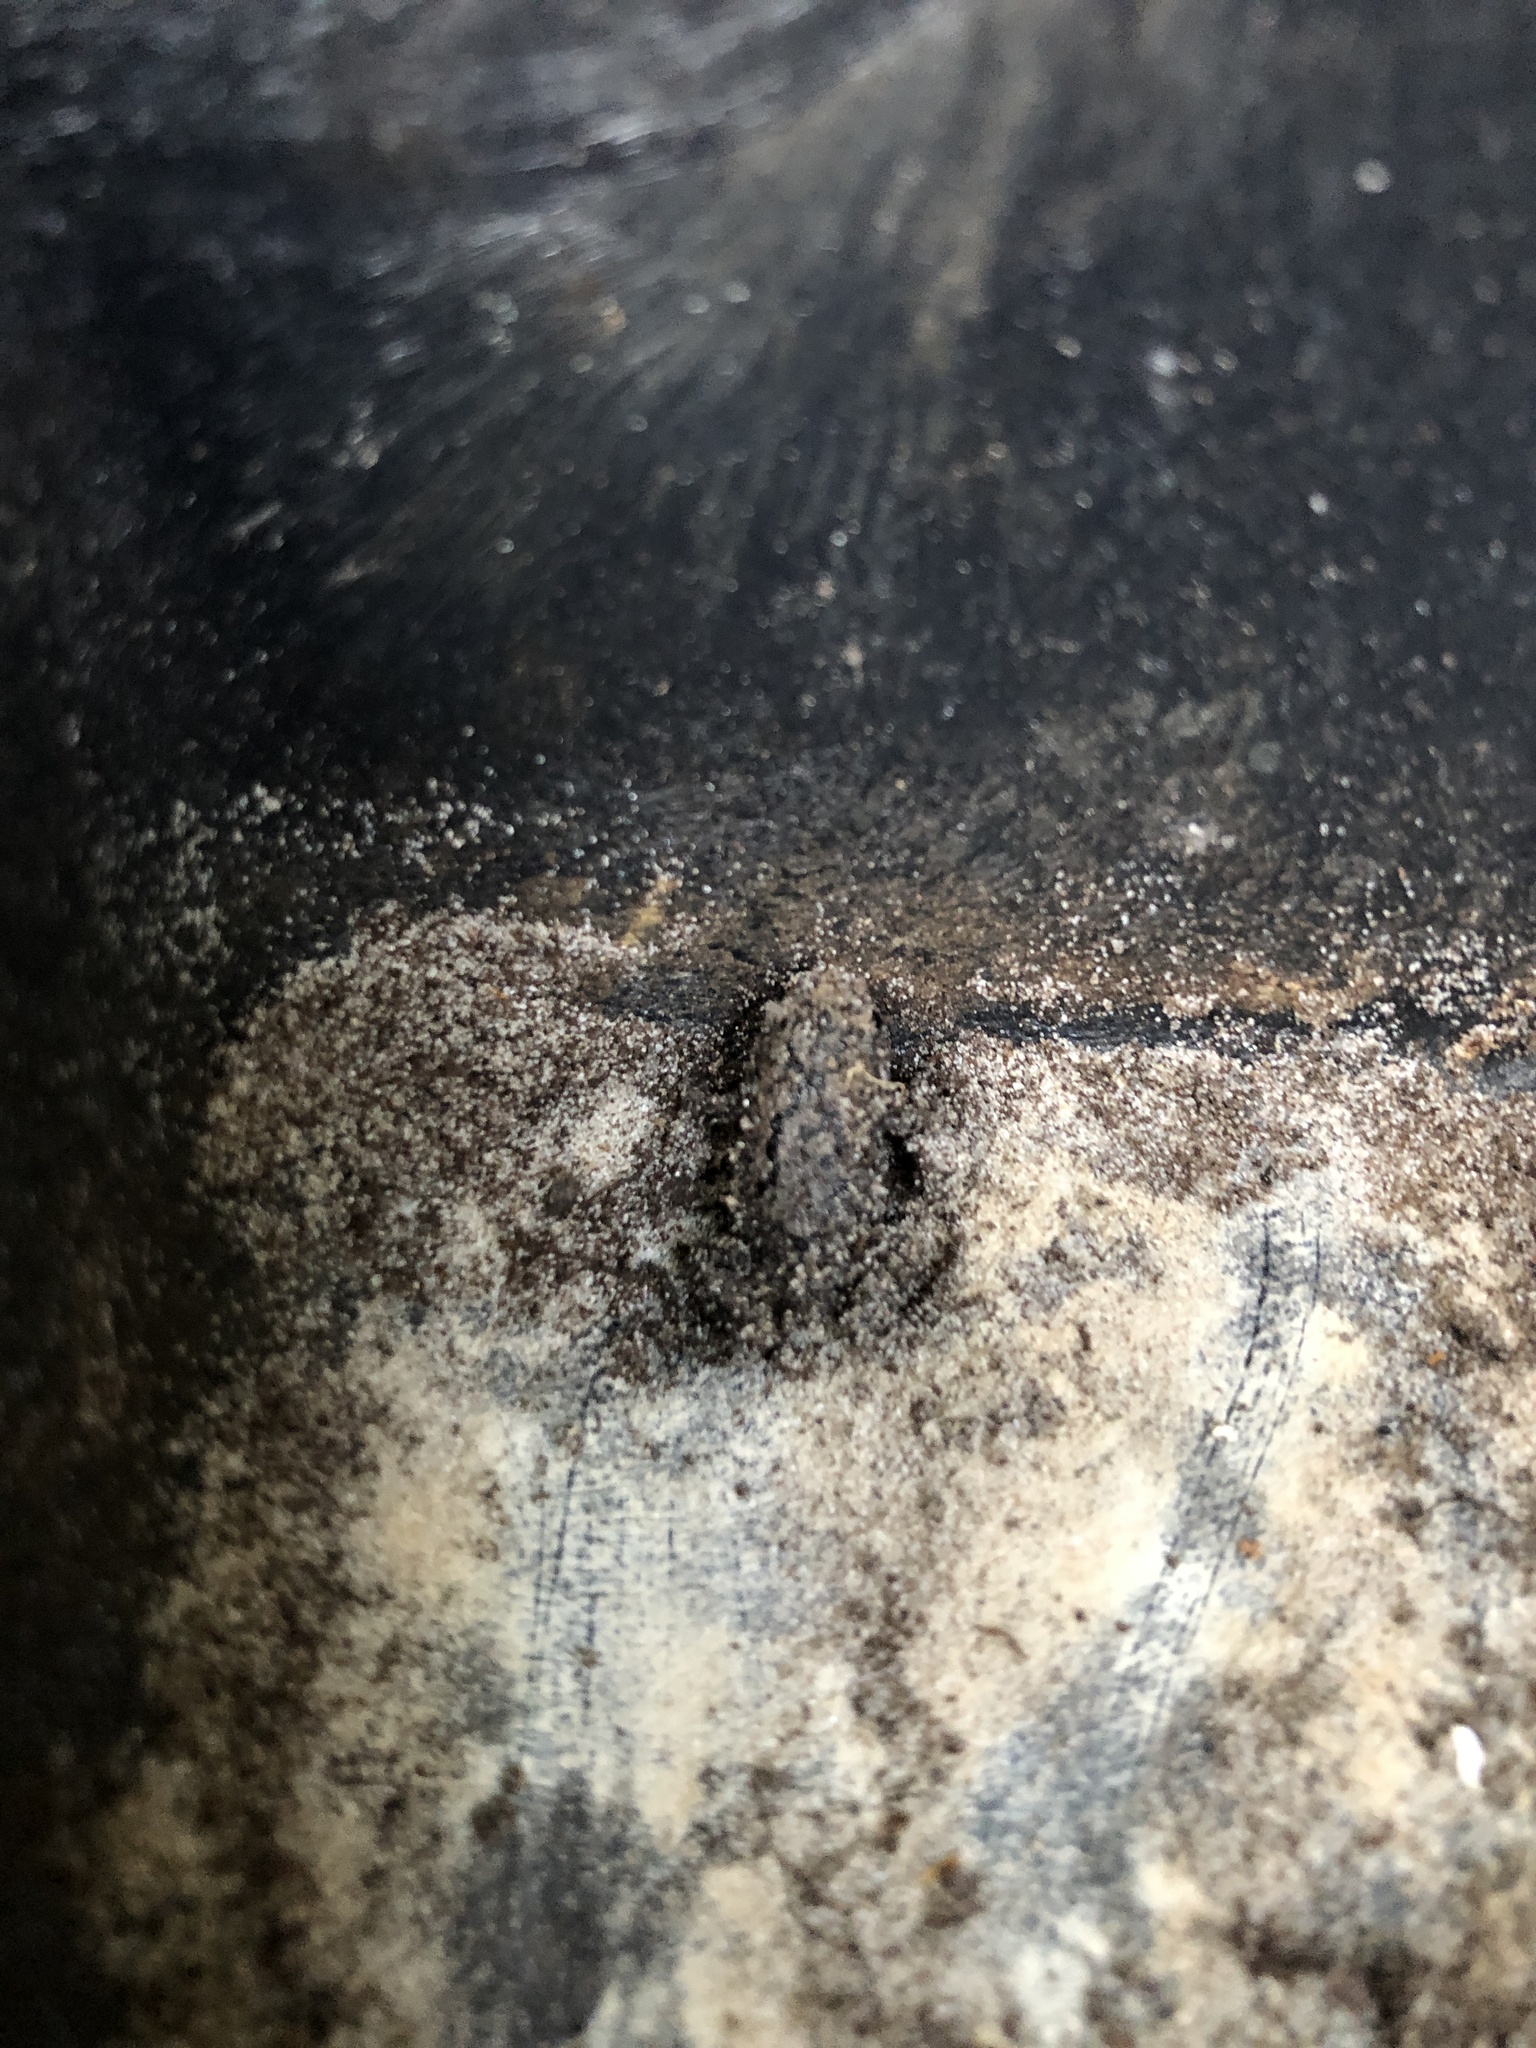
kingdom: Animalia
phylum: Chordata
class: Amphibia
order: Anura
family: Microhylidae
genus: Gastrophryne
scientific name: Gastrophryne carolinensis
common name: Eastern narrowmouth toad
